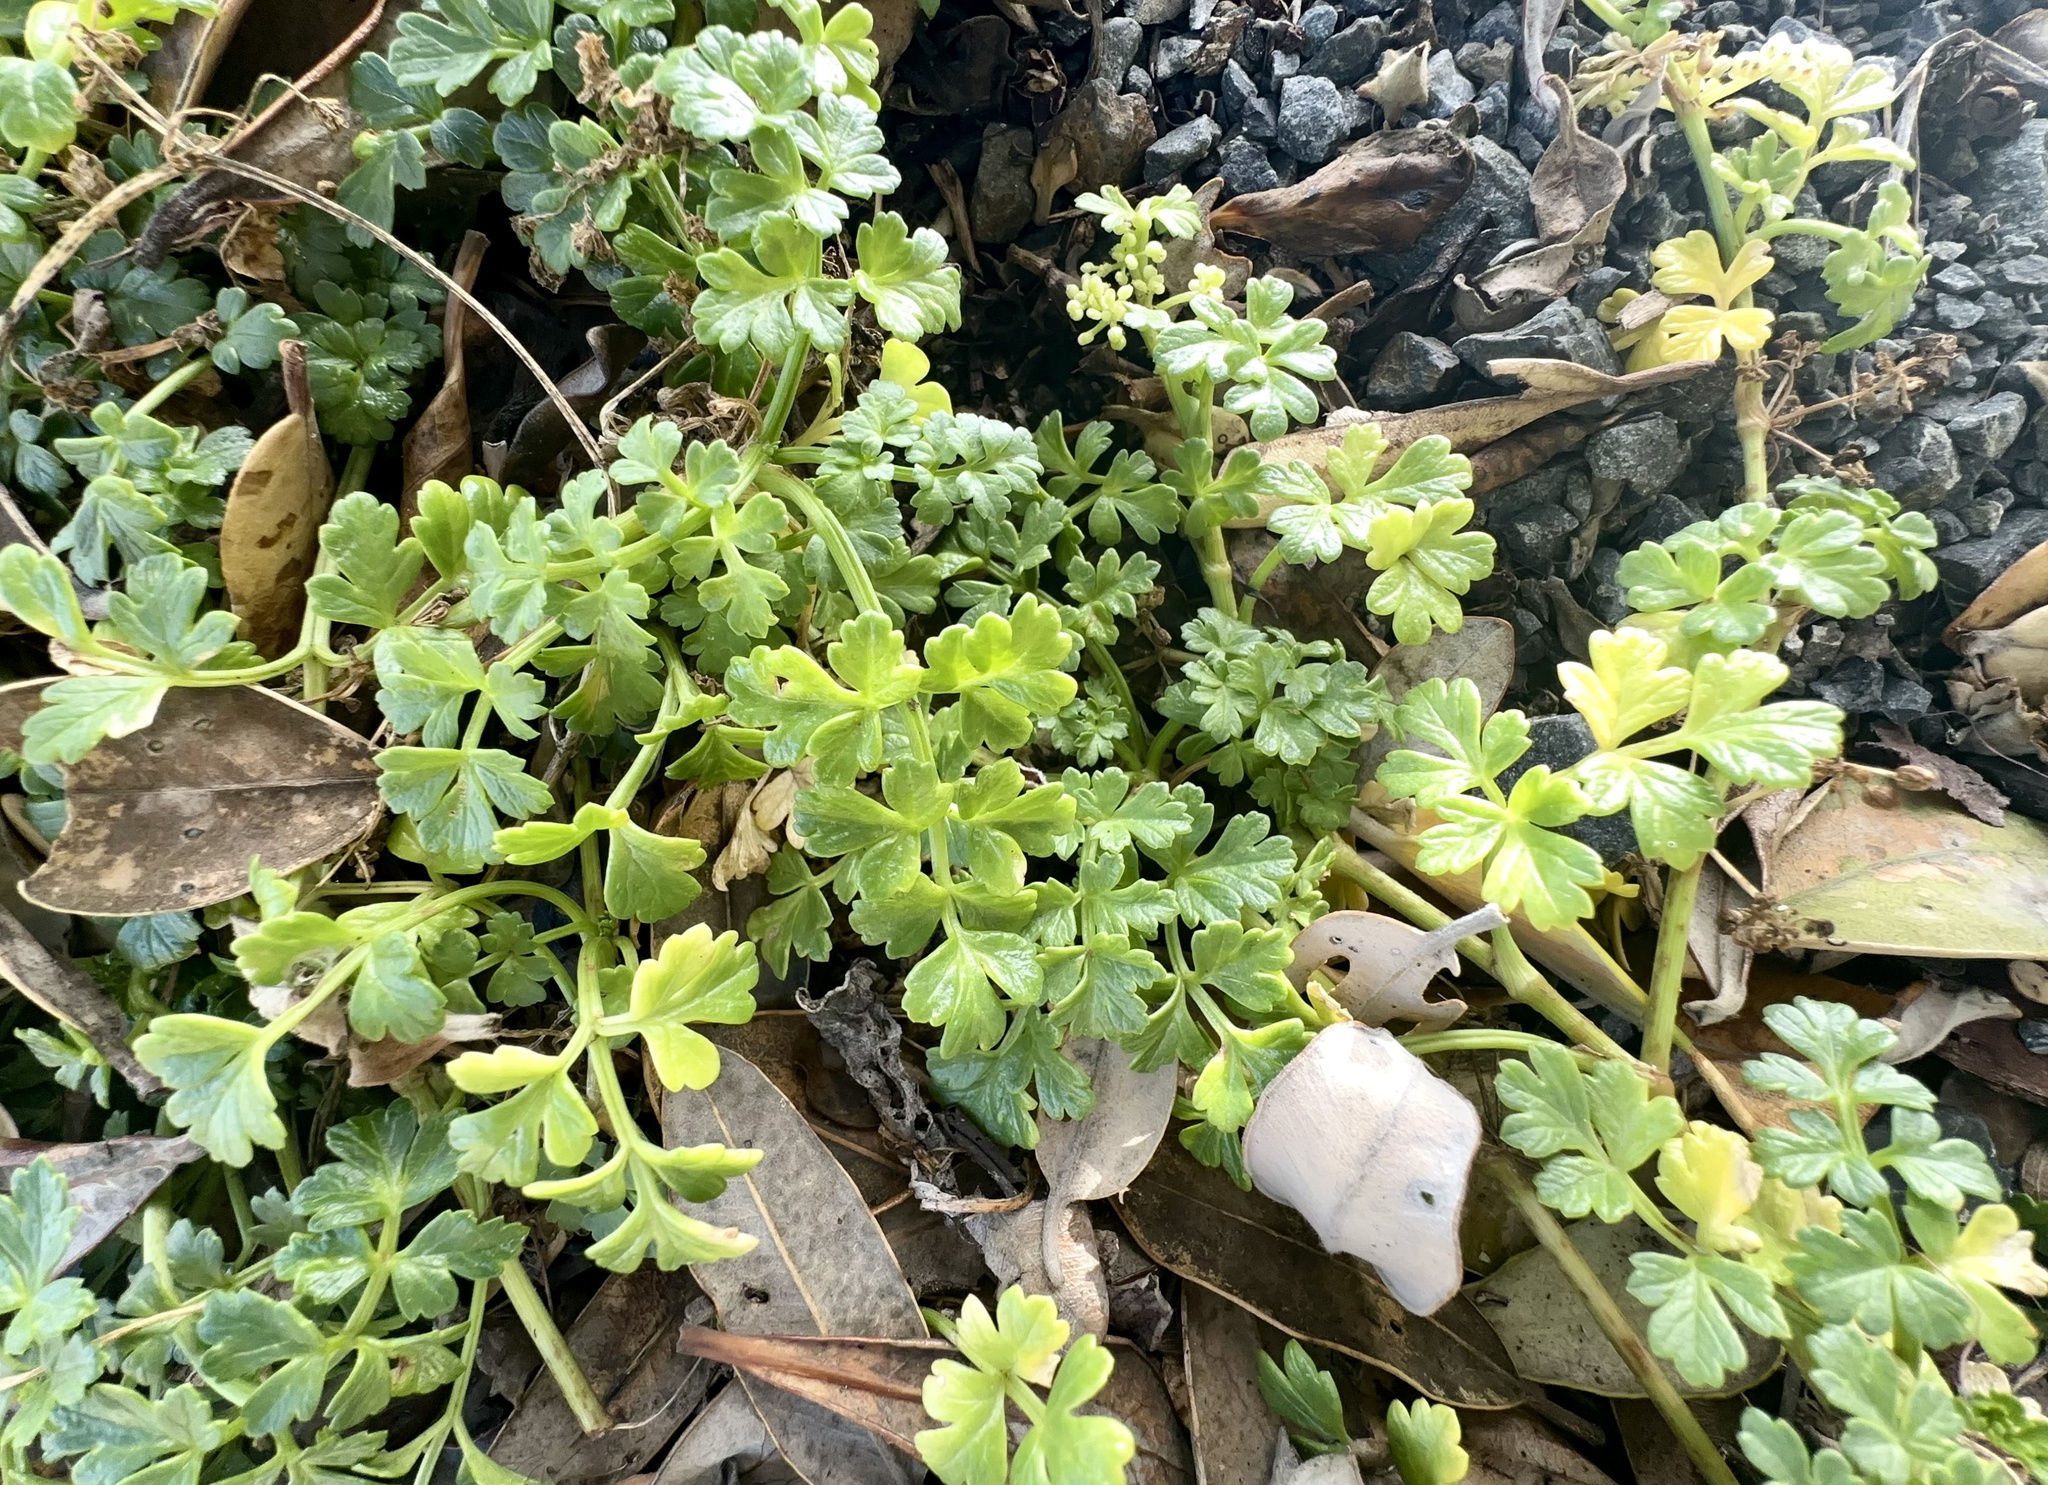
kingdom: Plantae
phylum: Tracheophyta
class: Magnoliopsida
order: Apiales
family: Apiaceae
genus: Apium
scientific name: Apium prostratum
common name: Prostrate marshwort
